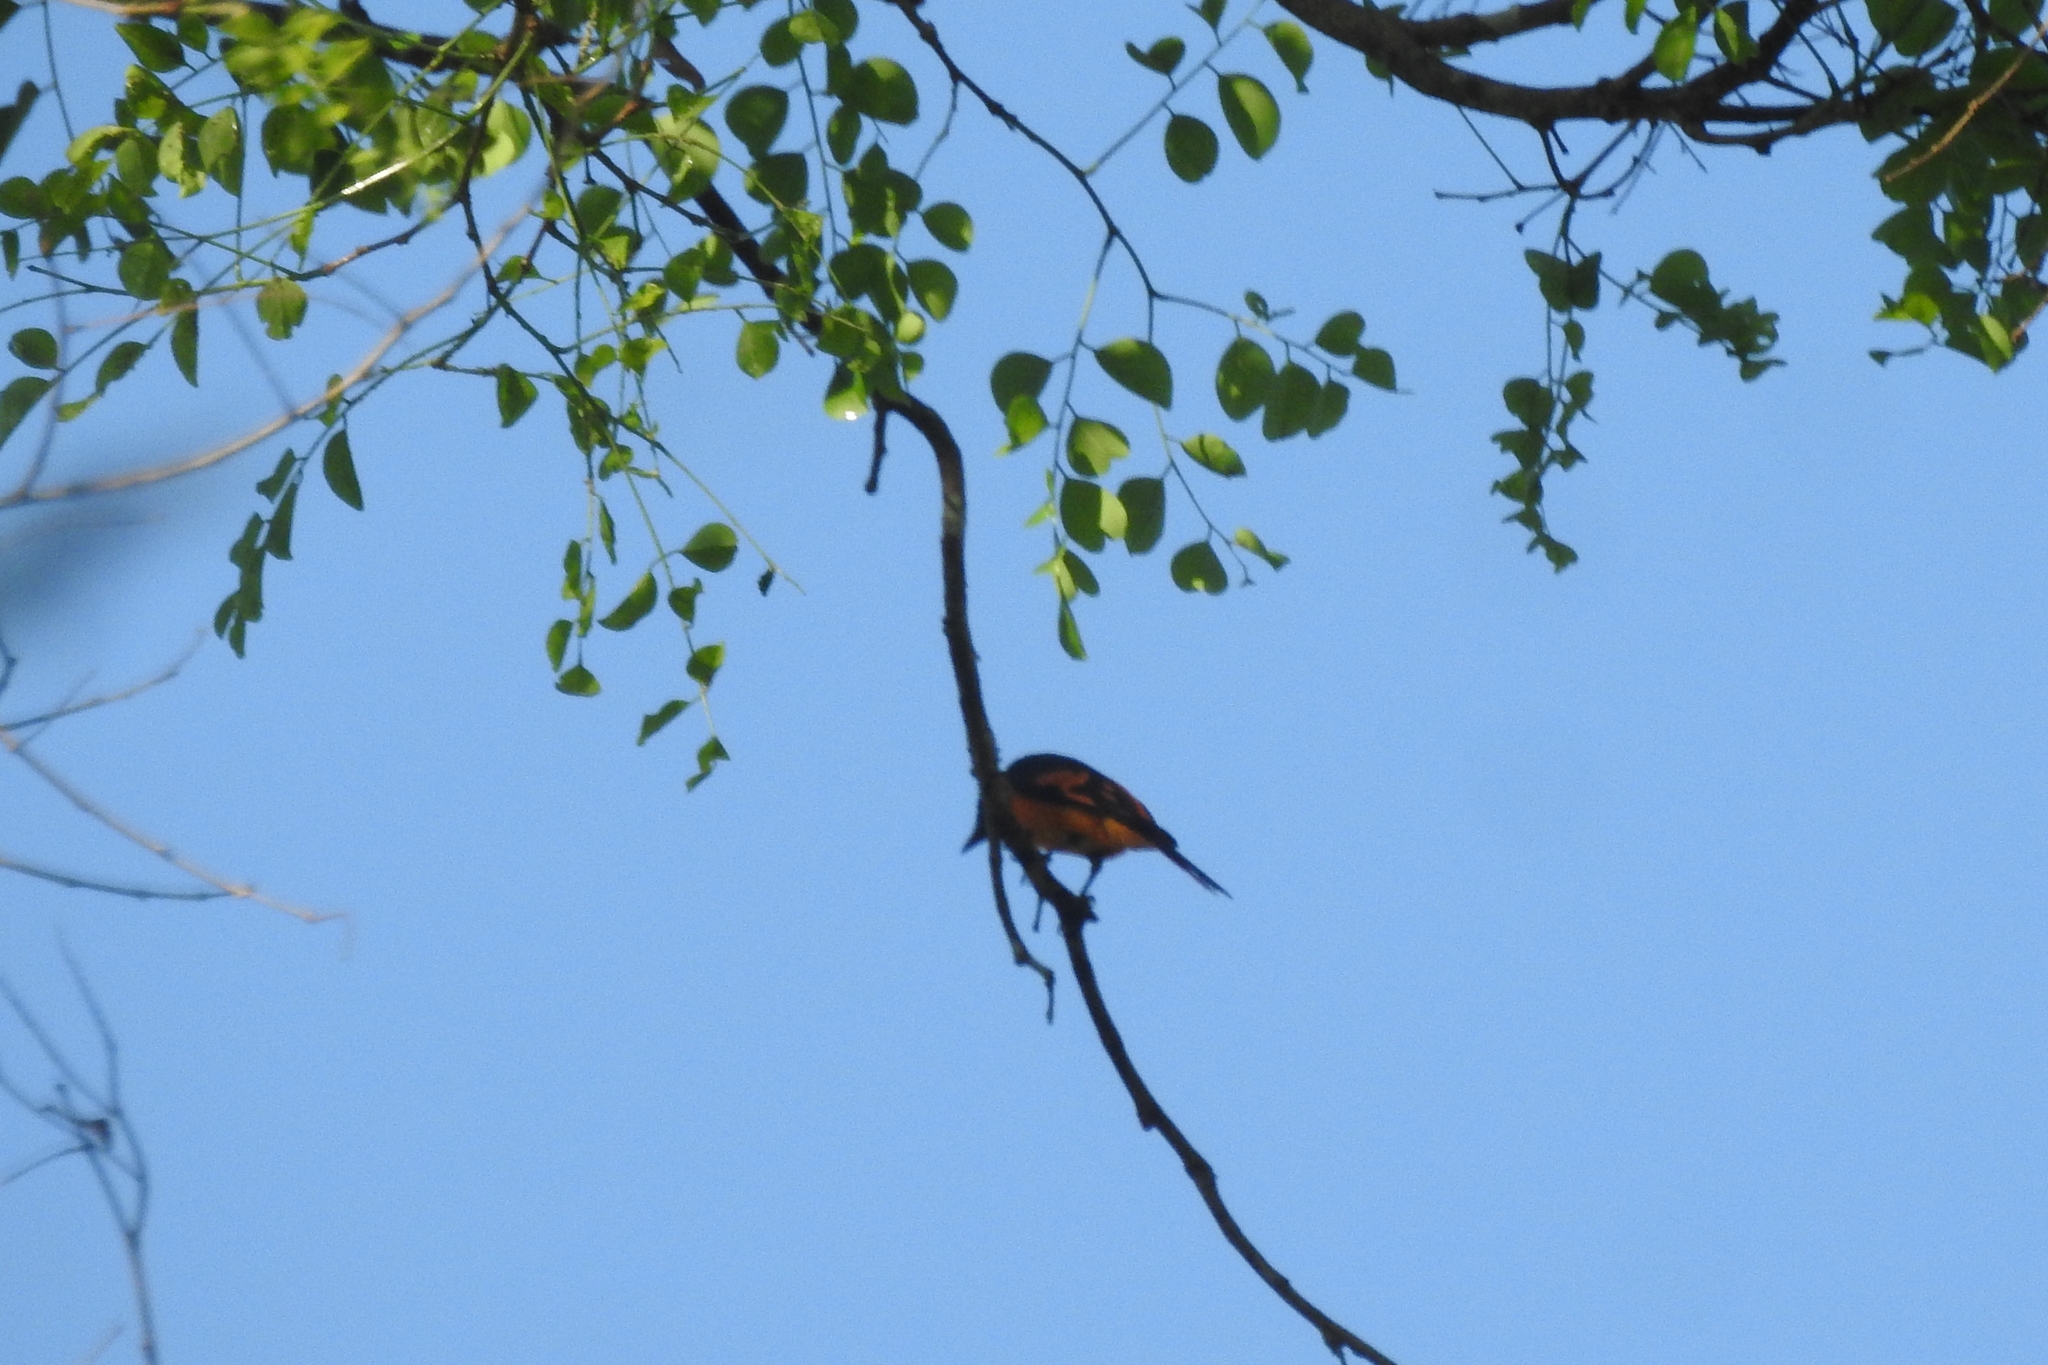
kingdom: Animalia
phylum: Chordata
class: Aves
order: Passeriformes
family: Campephagidae
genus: Pericrocotus
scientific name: Pericrocotus flammeus
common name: Orange minivet
